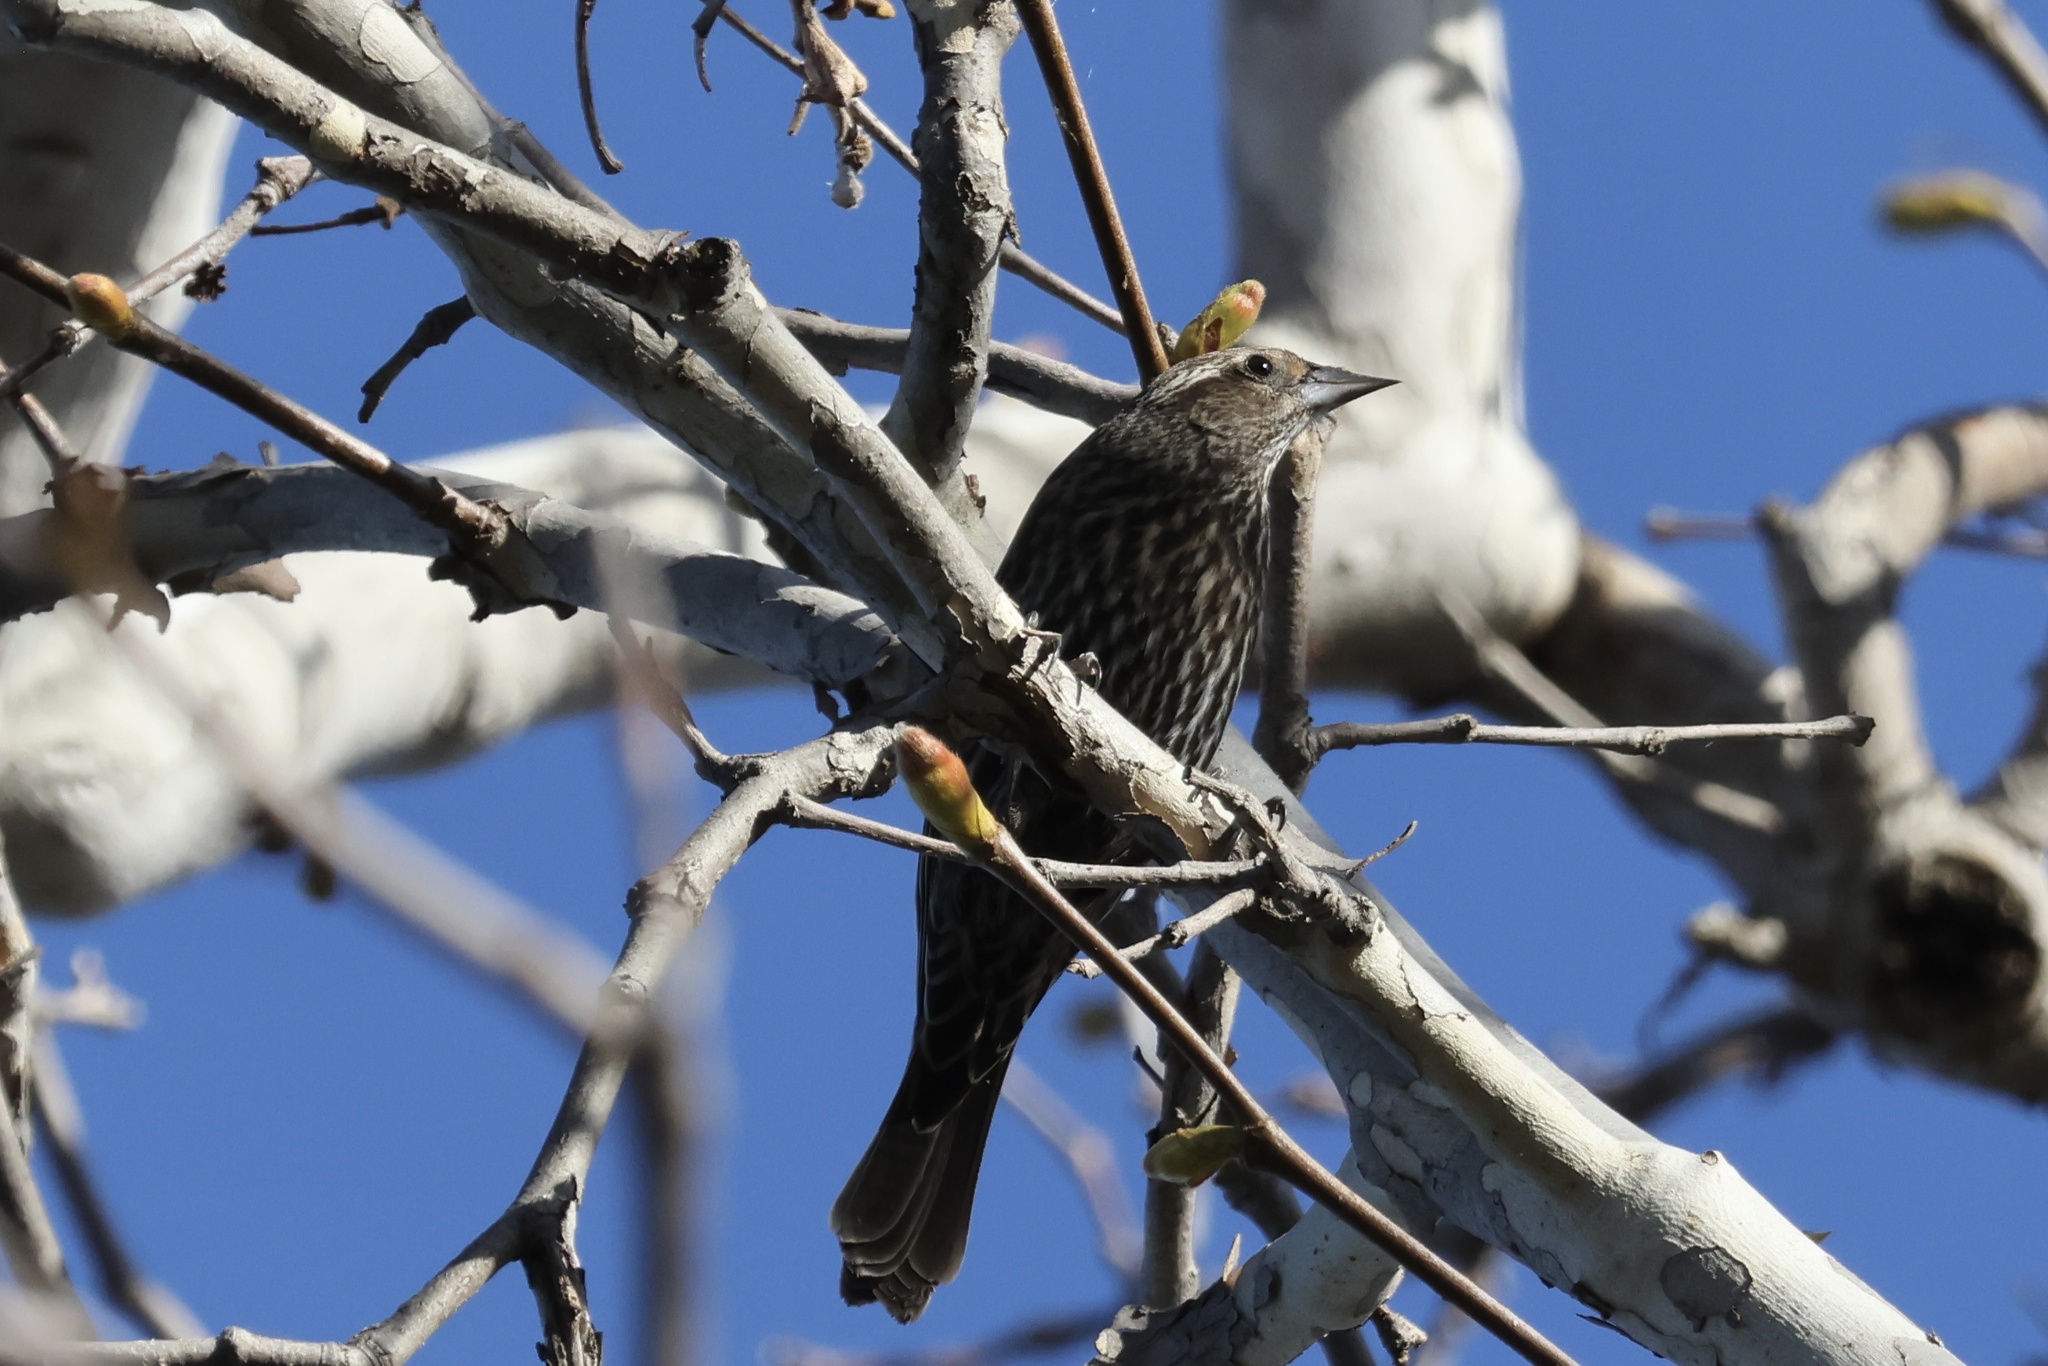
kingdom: Animalia
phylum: Chordata
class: Aves
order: Passeriformes
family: Icteridae
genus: Agelaius
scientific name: Agelaius phoeniceus
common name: Red-winged blackbird
